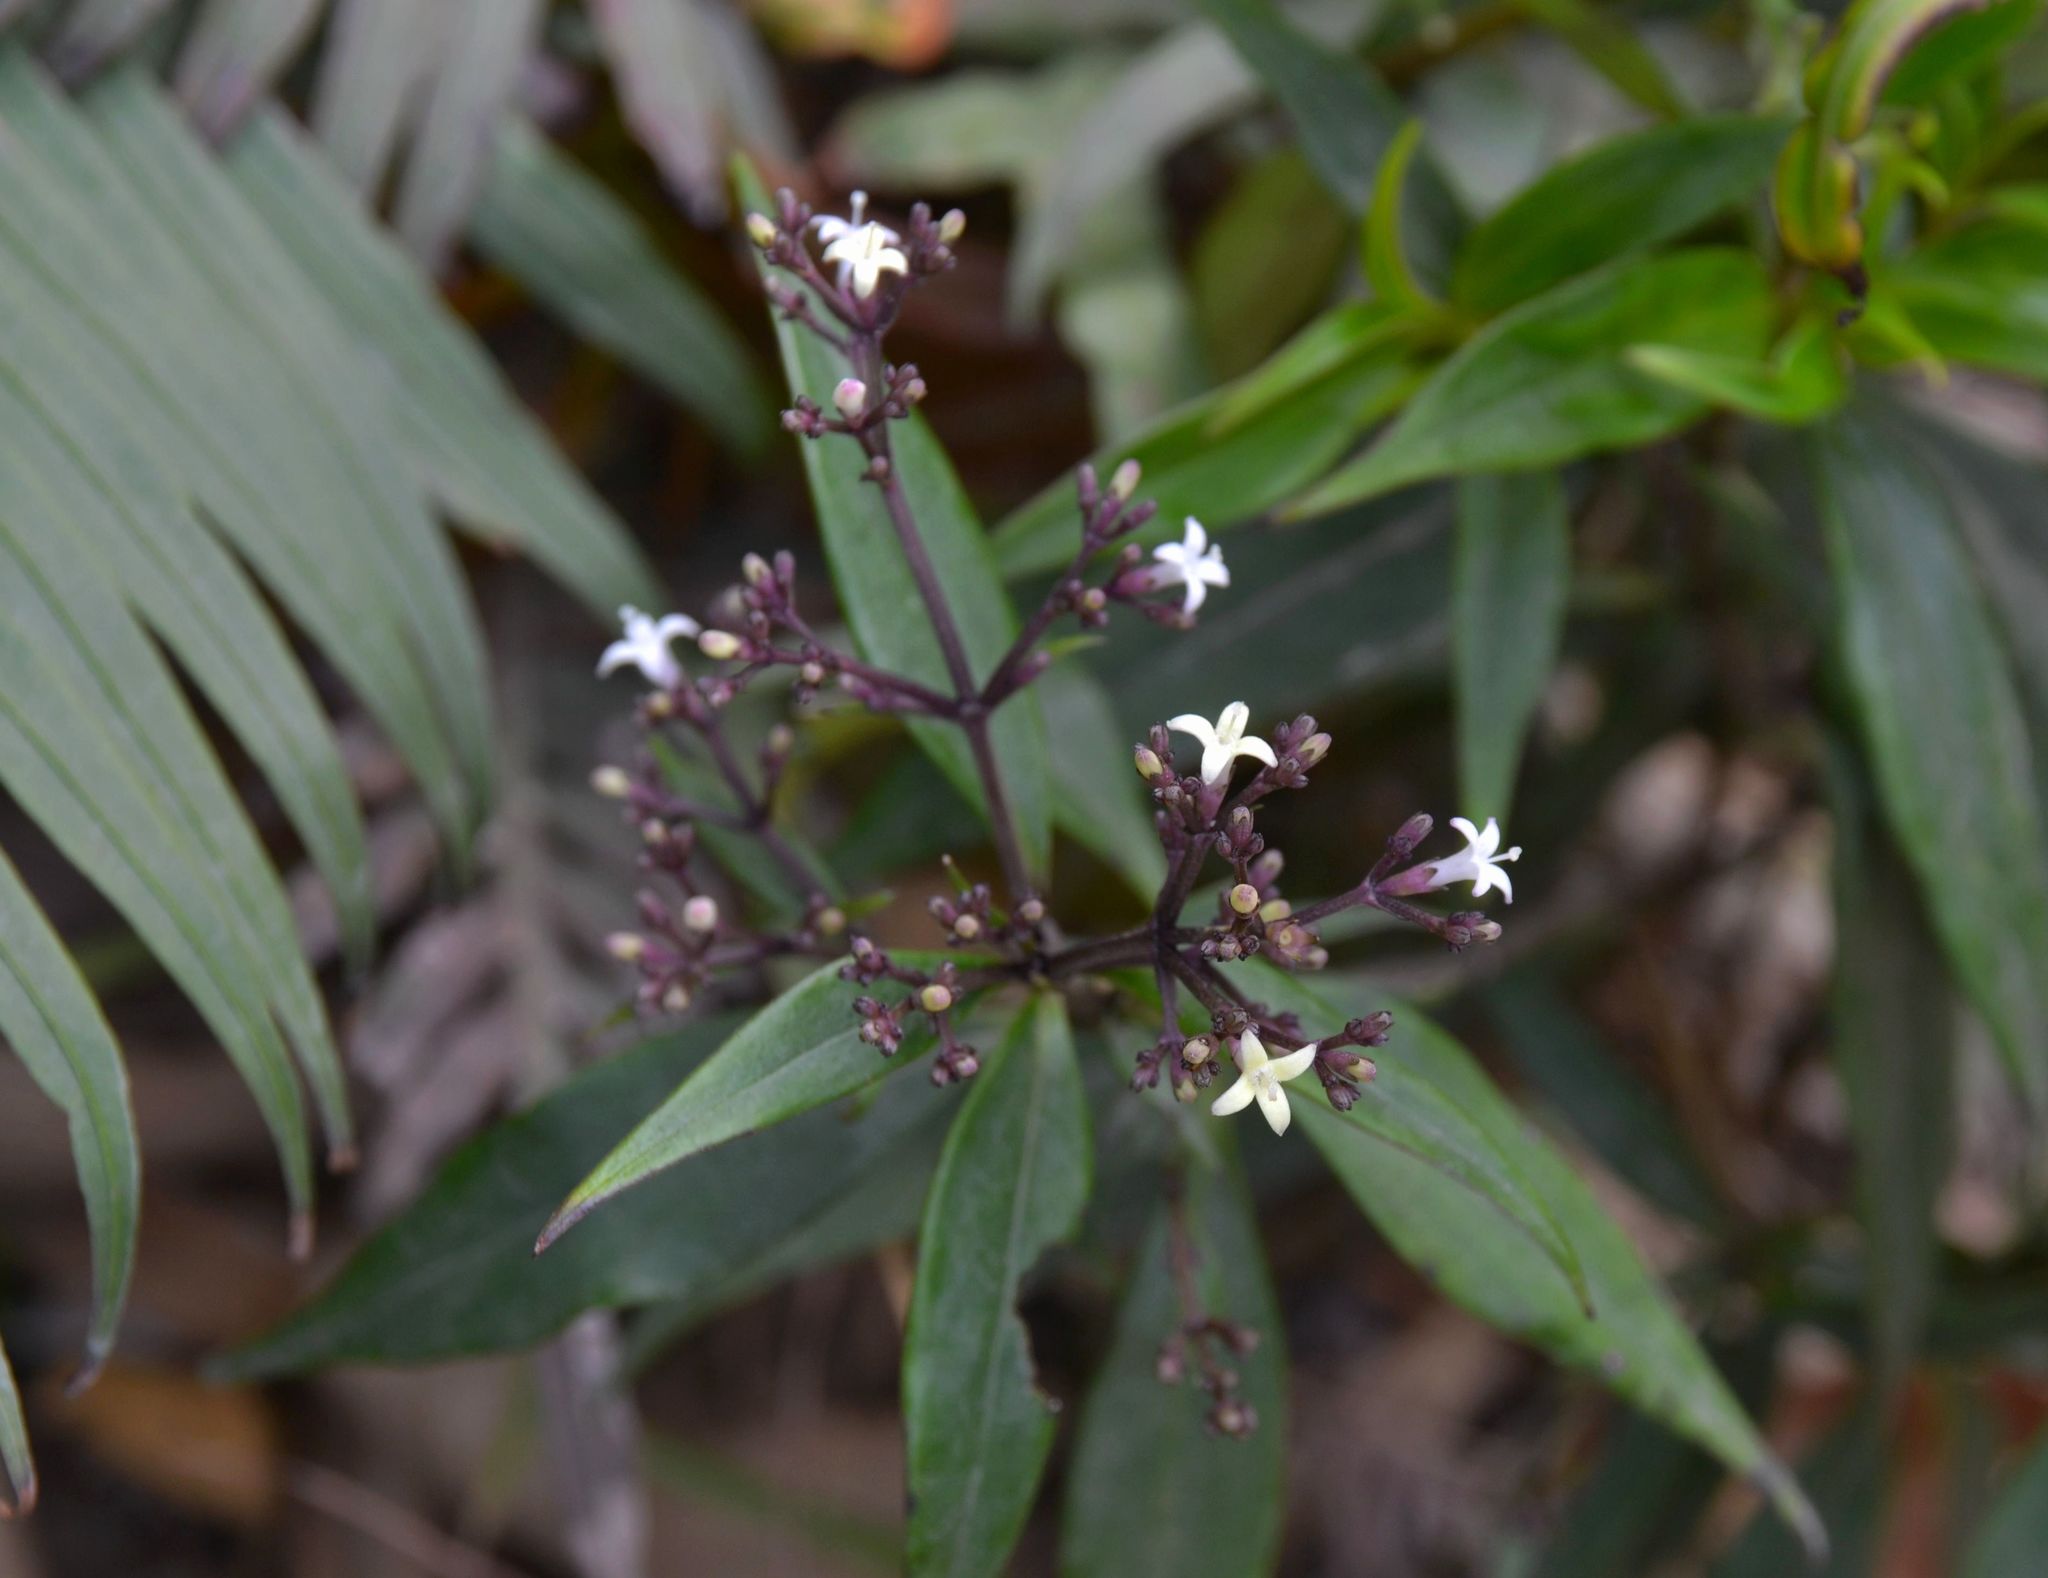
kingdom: Plantae
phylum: Tracheophyta
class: Magnoliopsida
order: Gentianales
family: Rubiaceae
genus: Hedyotis
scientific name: Hedyotis lancea
